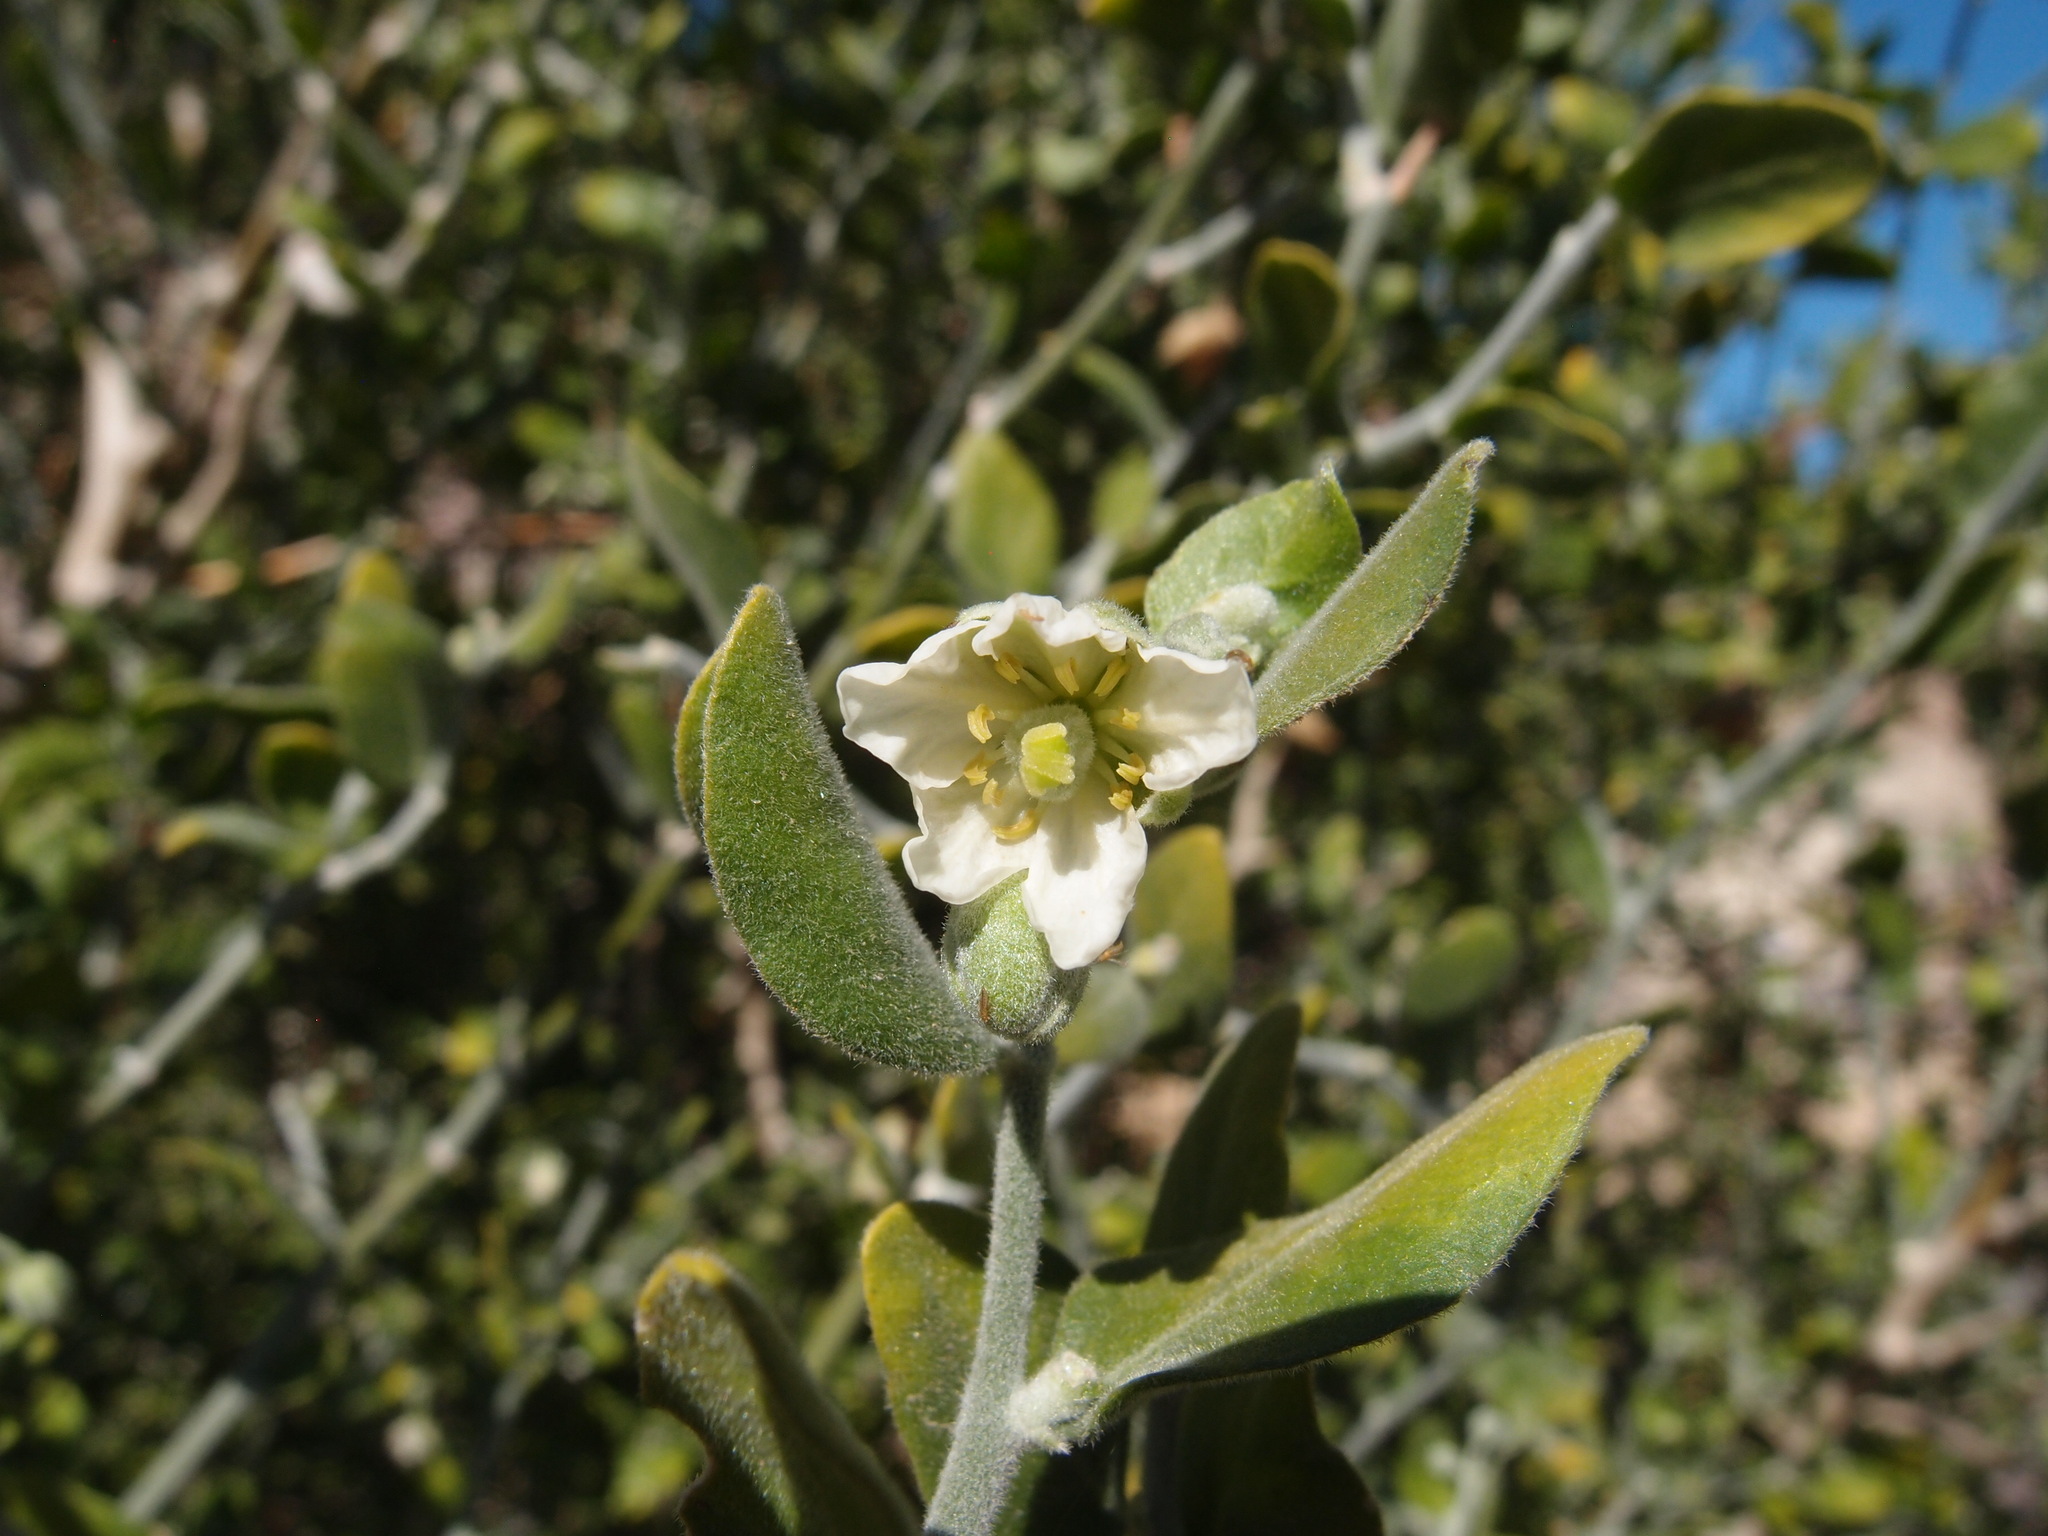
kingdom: Plantae
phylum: Tracheophyta
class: Magnoliopsida
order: Zygophyllales
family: Zygophyllaceae
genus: Viscainoa
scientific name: Viscainoa geniculata
